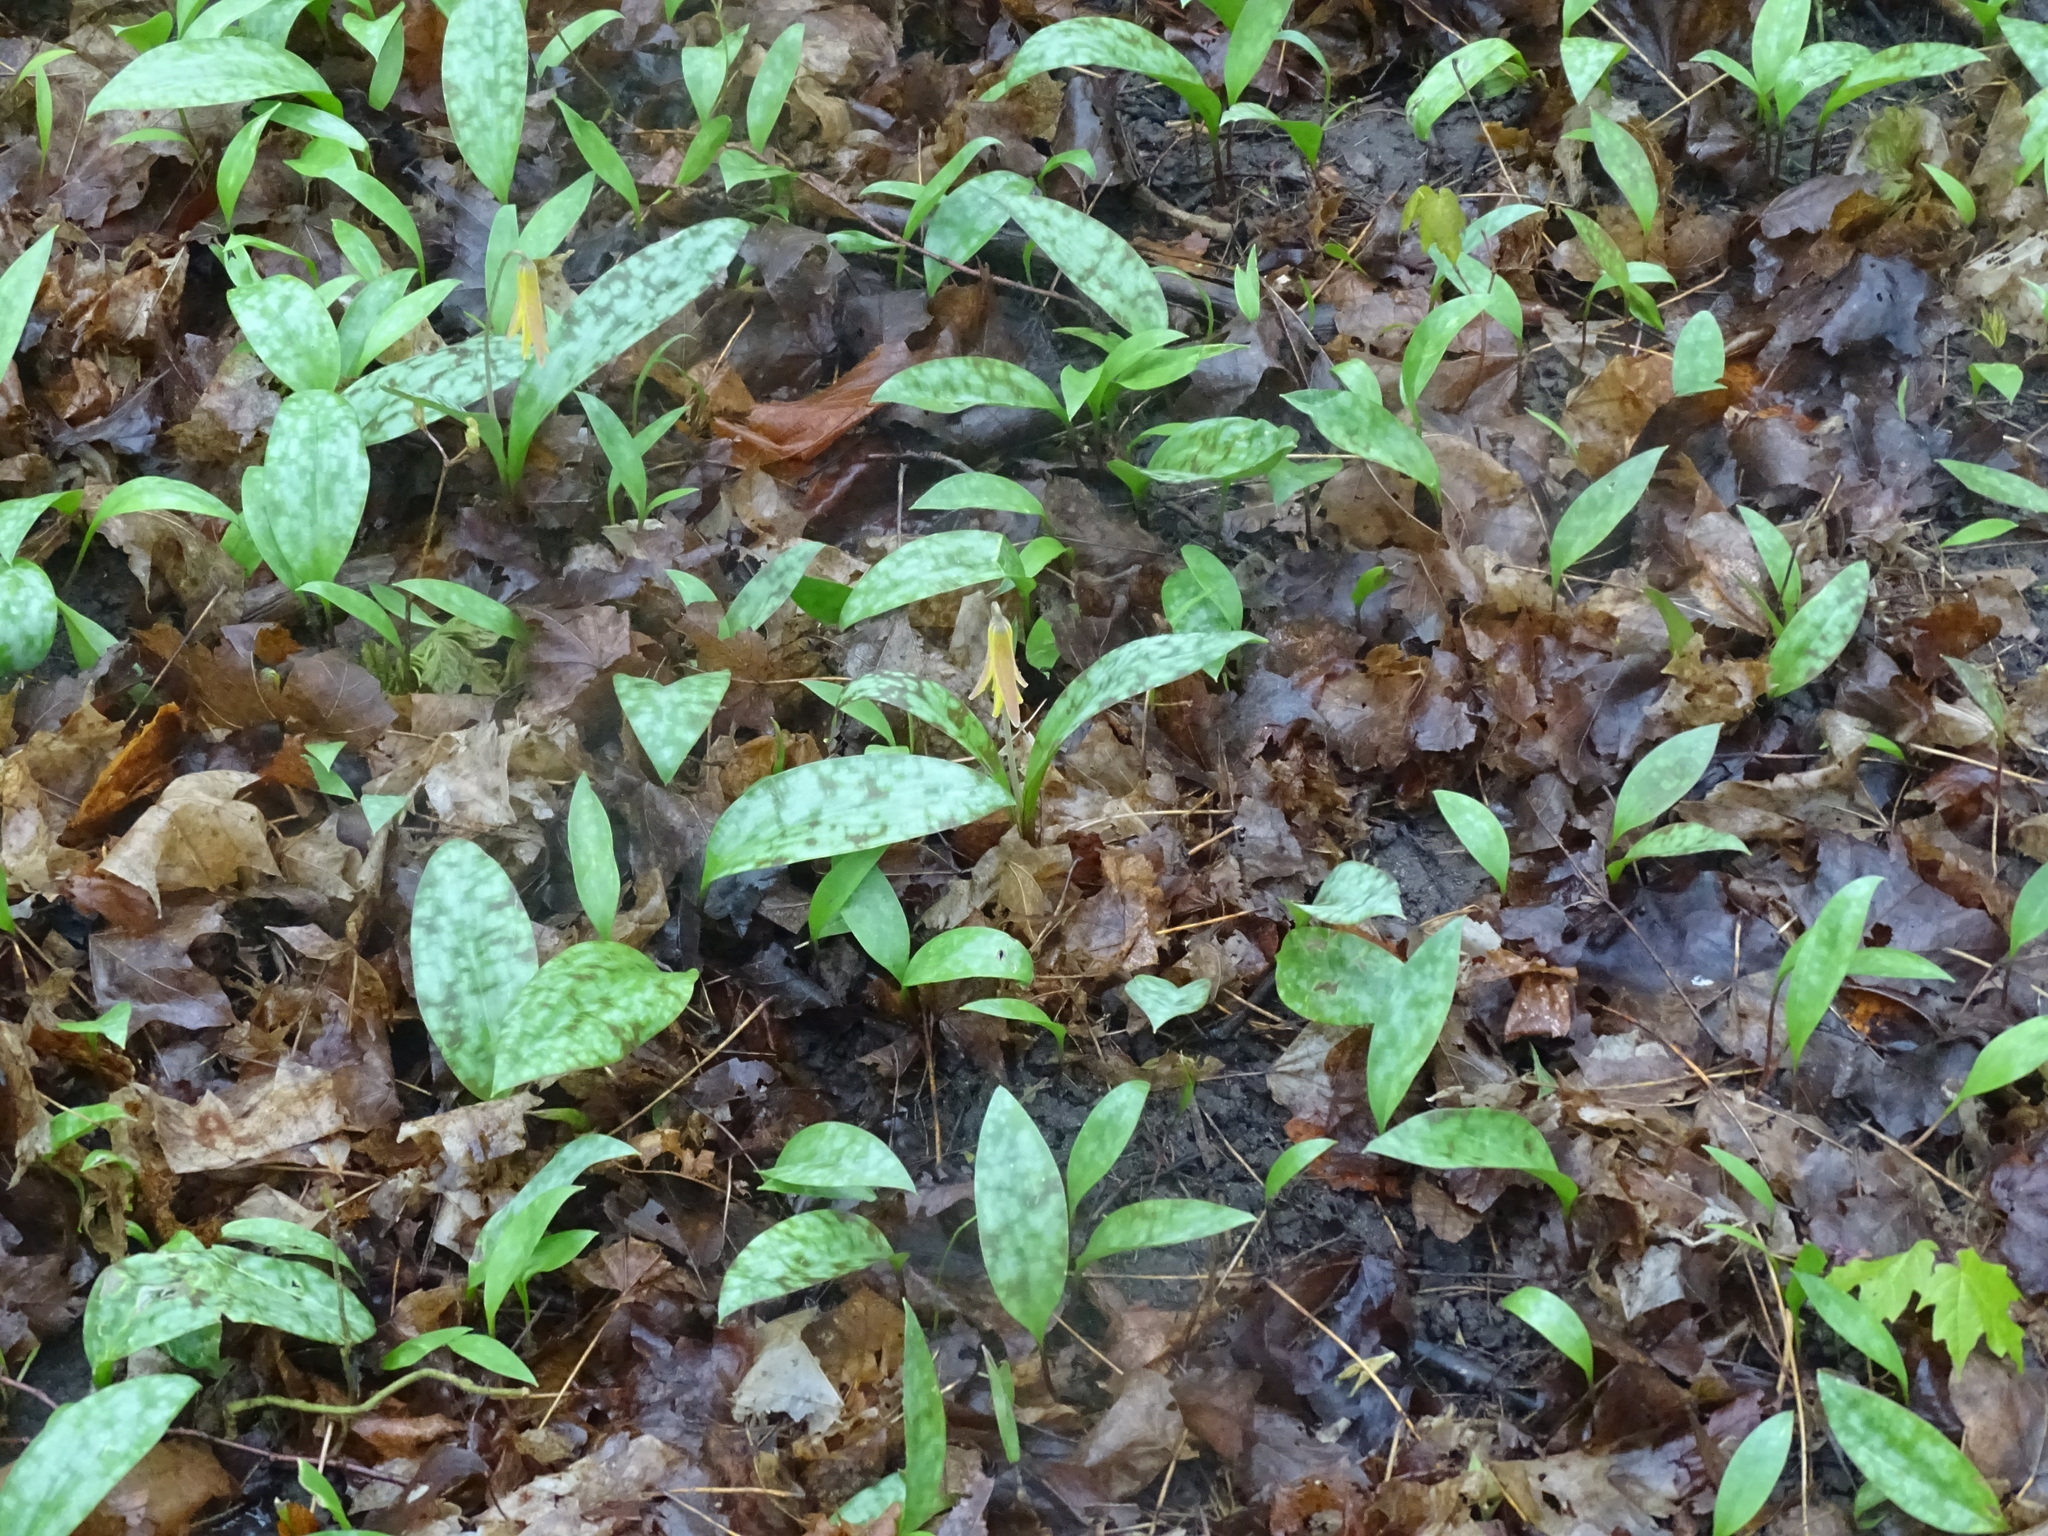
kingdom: Plantae
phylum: Tracheophyta
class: Liliopsida
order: Liliales
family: Liliaceae
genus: Erythronium
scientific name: Erythronium americanum
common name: Yellow adder's-tongue
